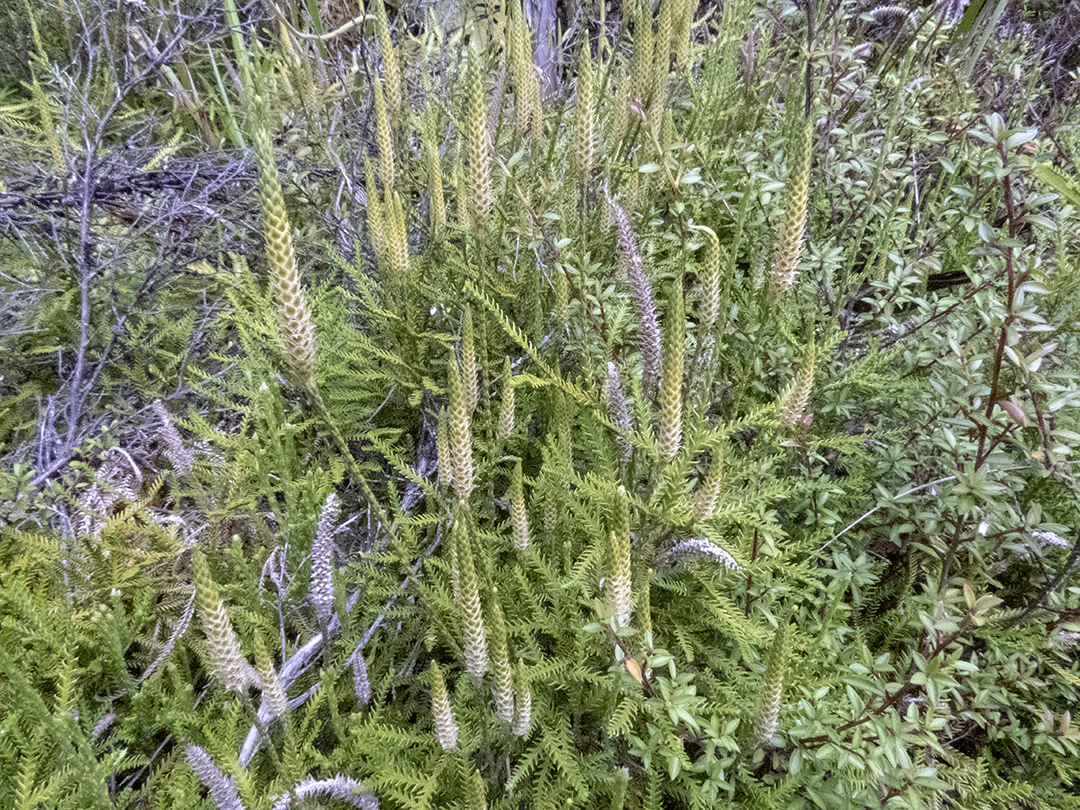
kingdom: Plantae
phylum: Tracheophyta
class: Lycopodiopsida
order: Lycopodiales
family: Lycopodiaceae
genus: Diphasium
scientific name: Diphasium scariosum
